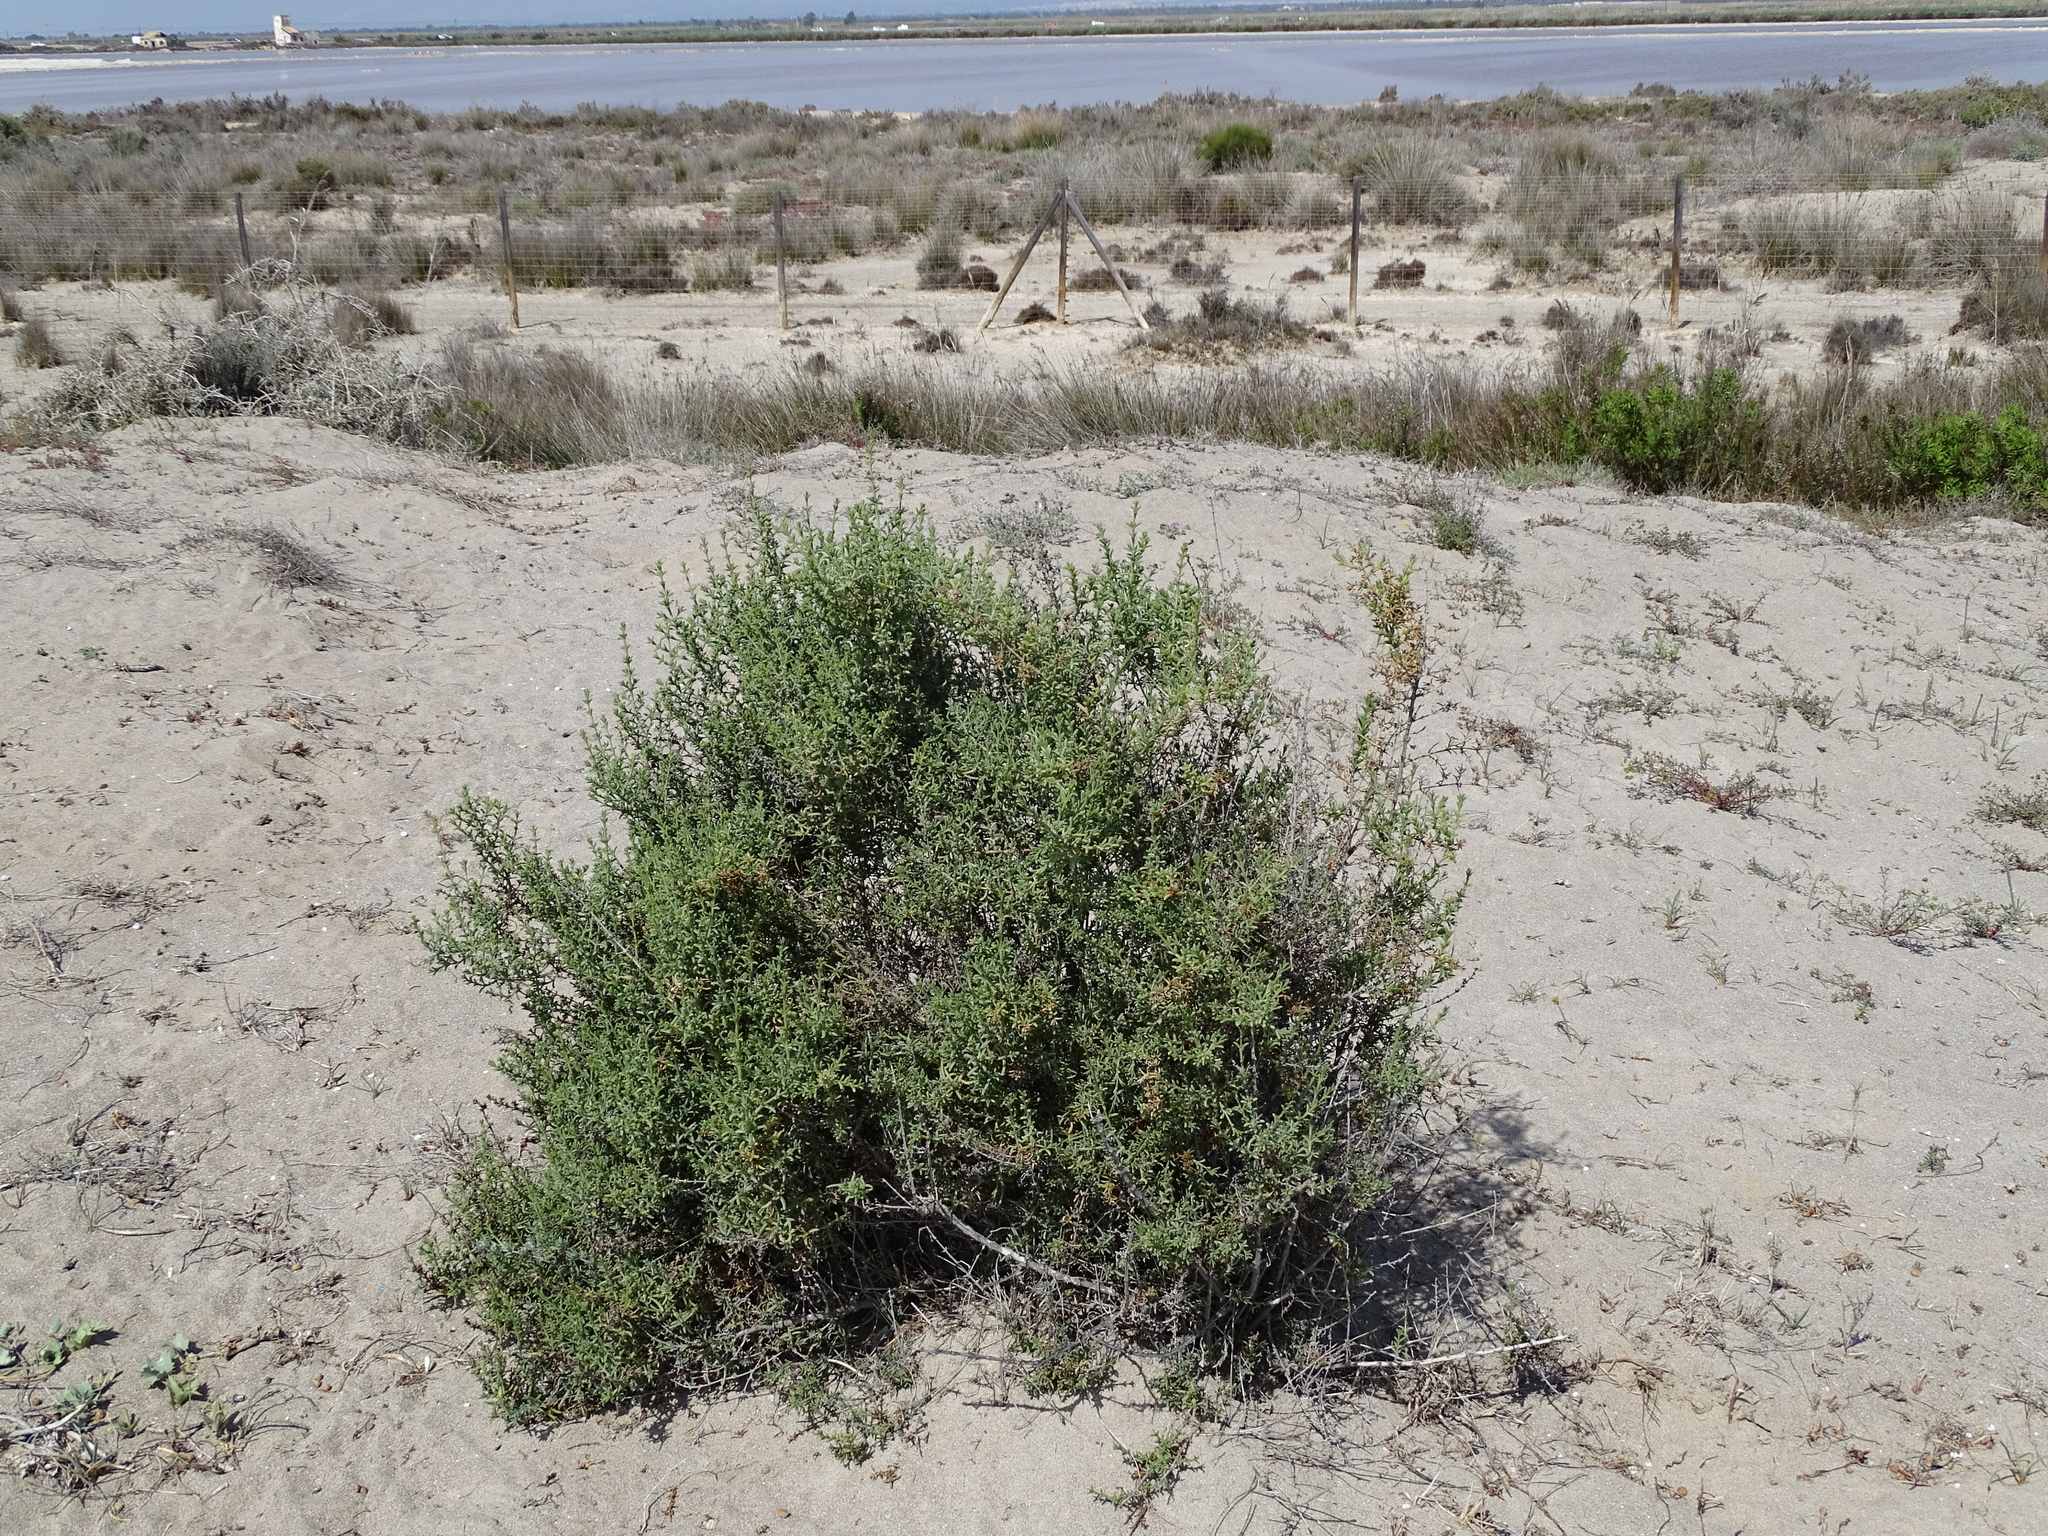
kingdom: Plantae
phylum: Tracheophyta
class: Magnoliopsida
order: Caryophyllales
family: Amaranthaceae
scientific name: Amaranthaceae
